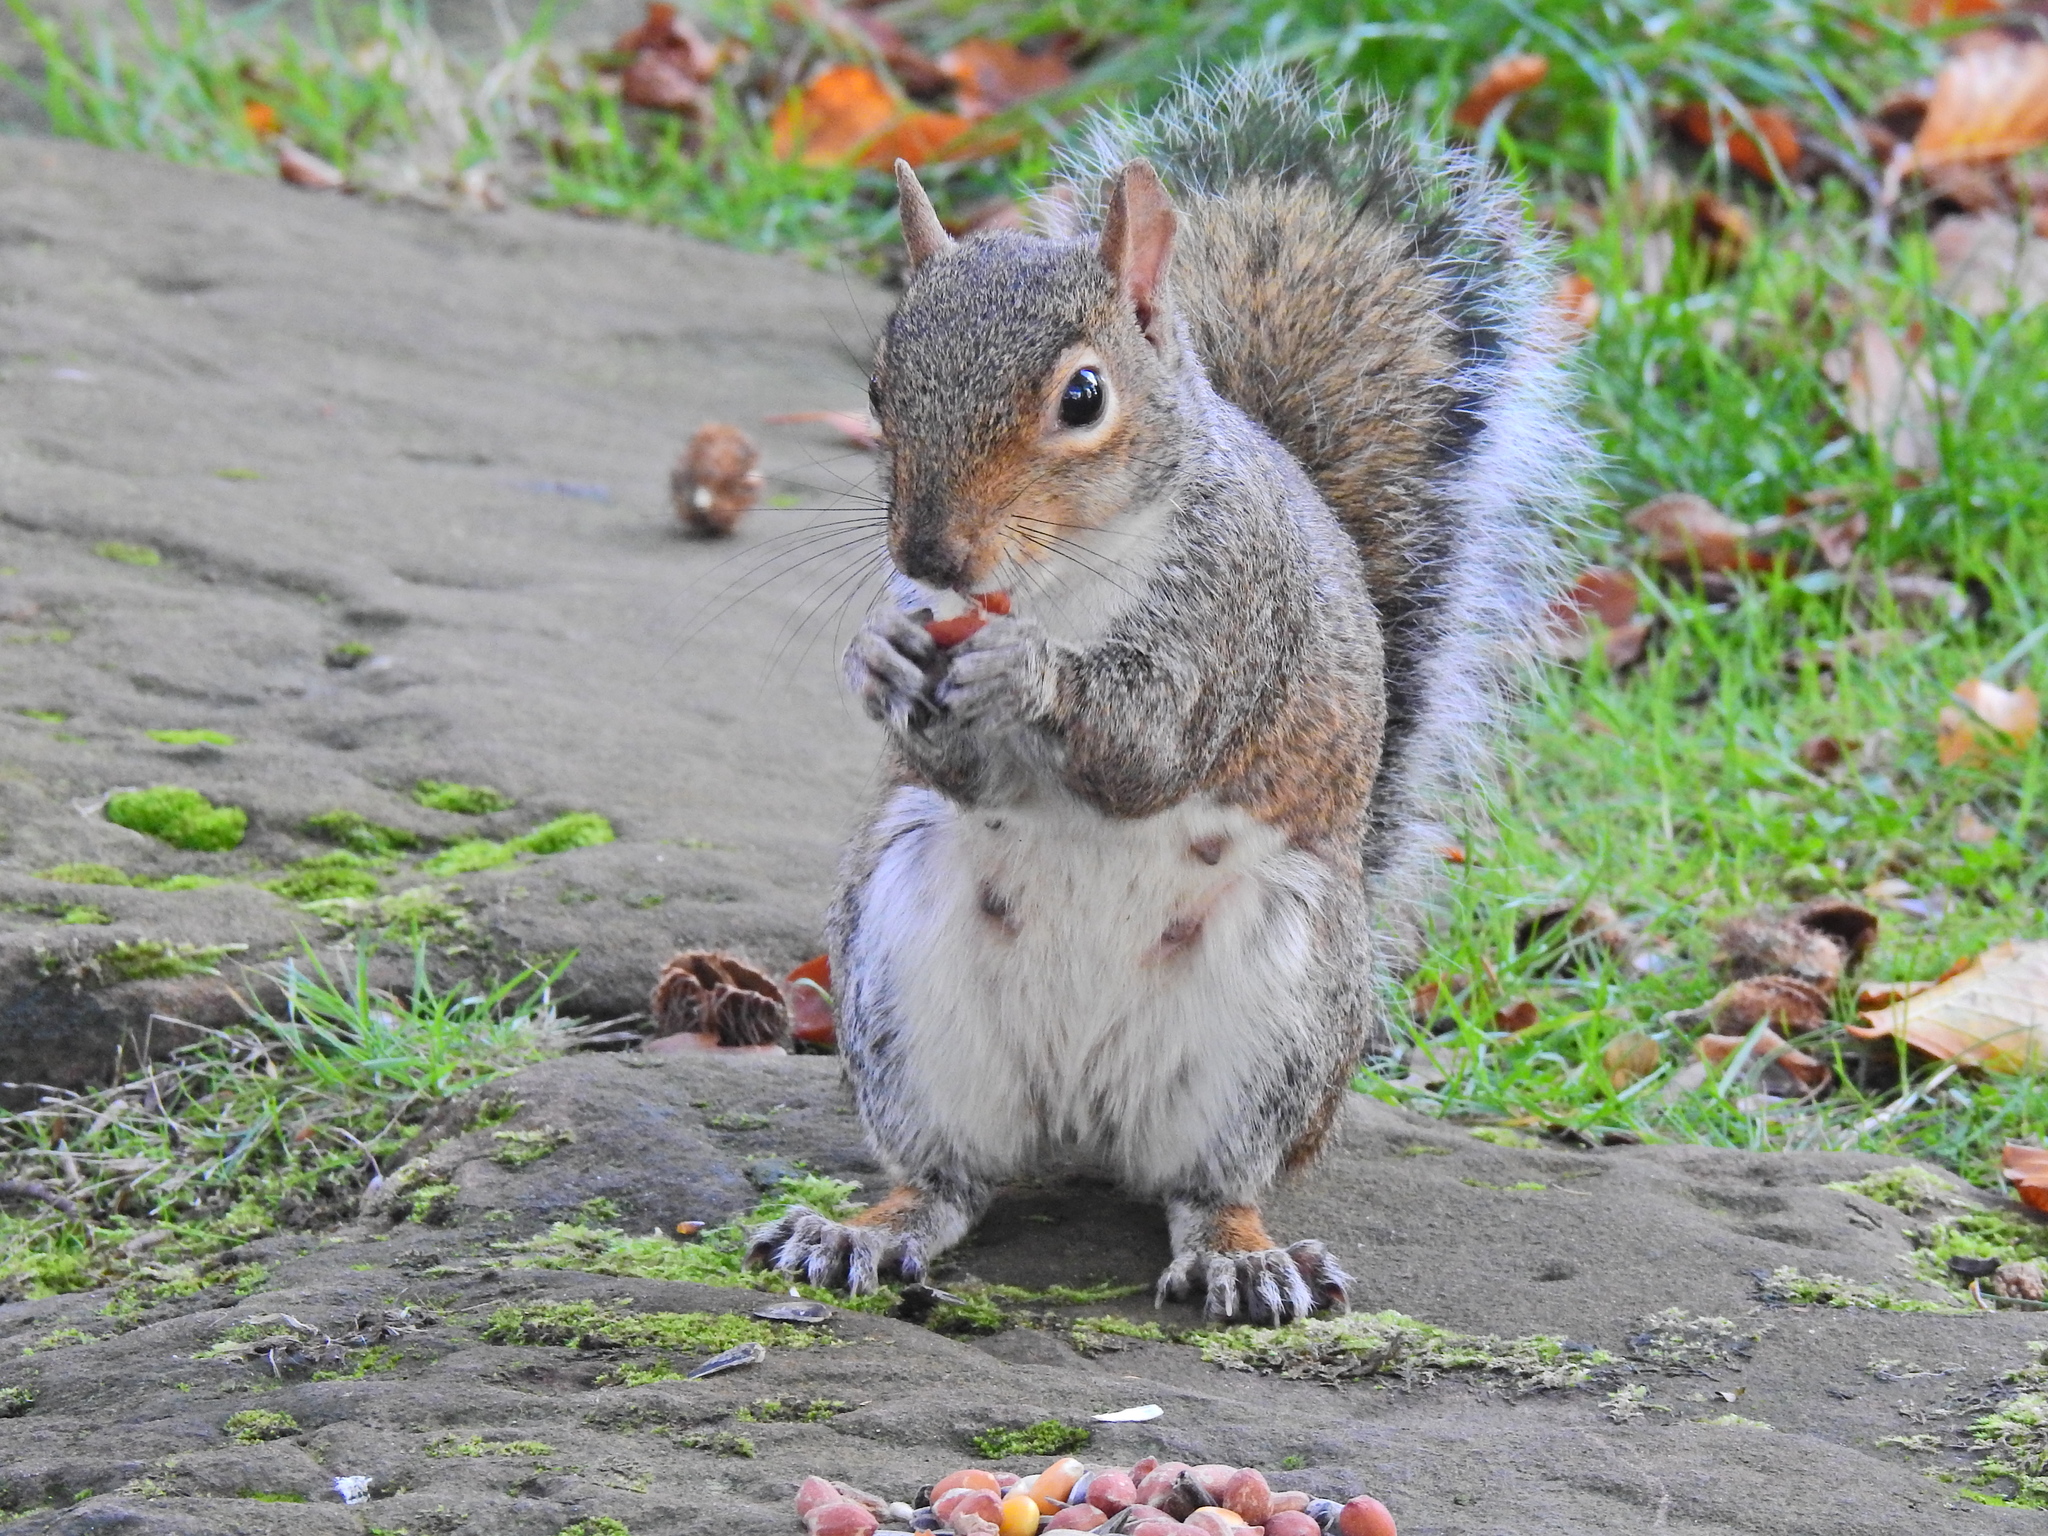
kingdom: Animalia
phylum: Chordata
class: Mammalia
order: Rodentia
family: Sciuridae
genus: Sciurus
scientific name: Sciurus carolinensis
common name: Eastern gray squirrel
